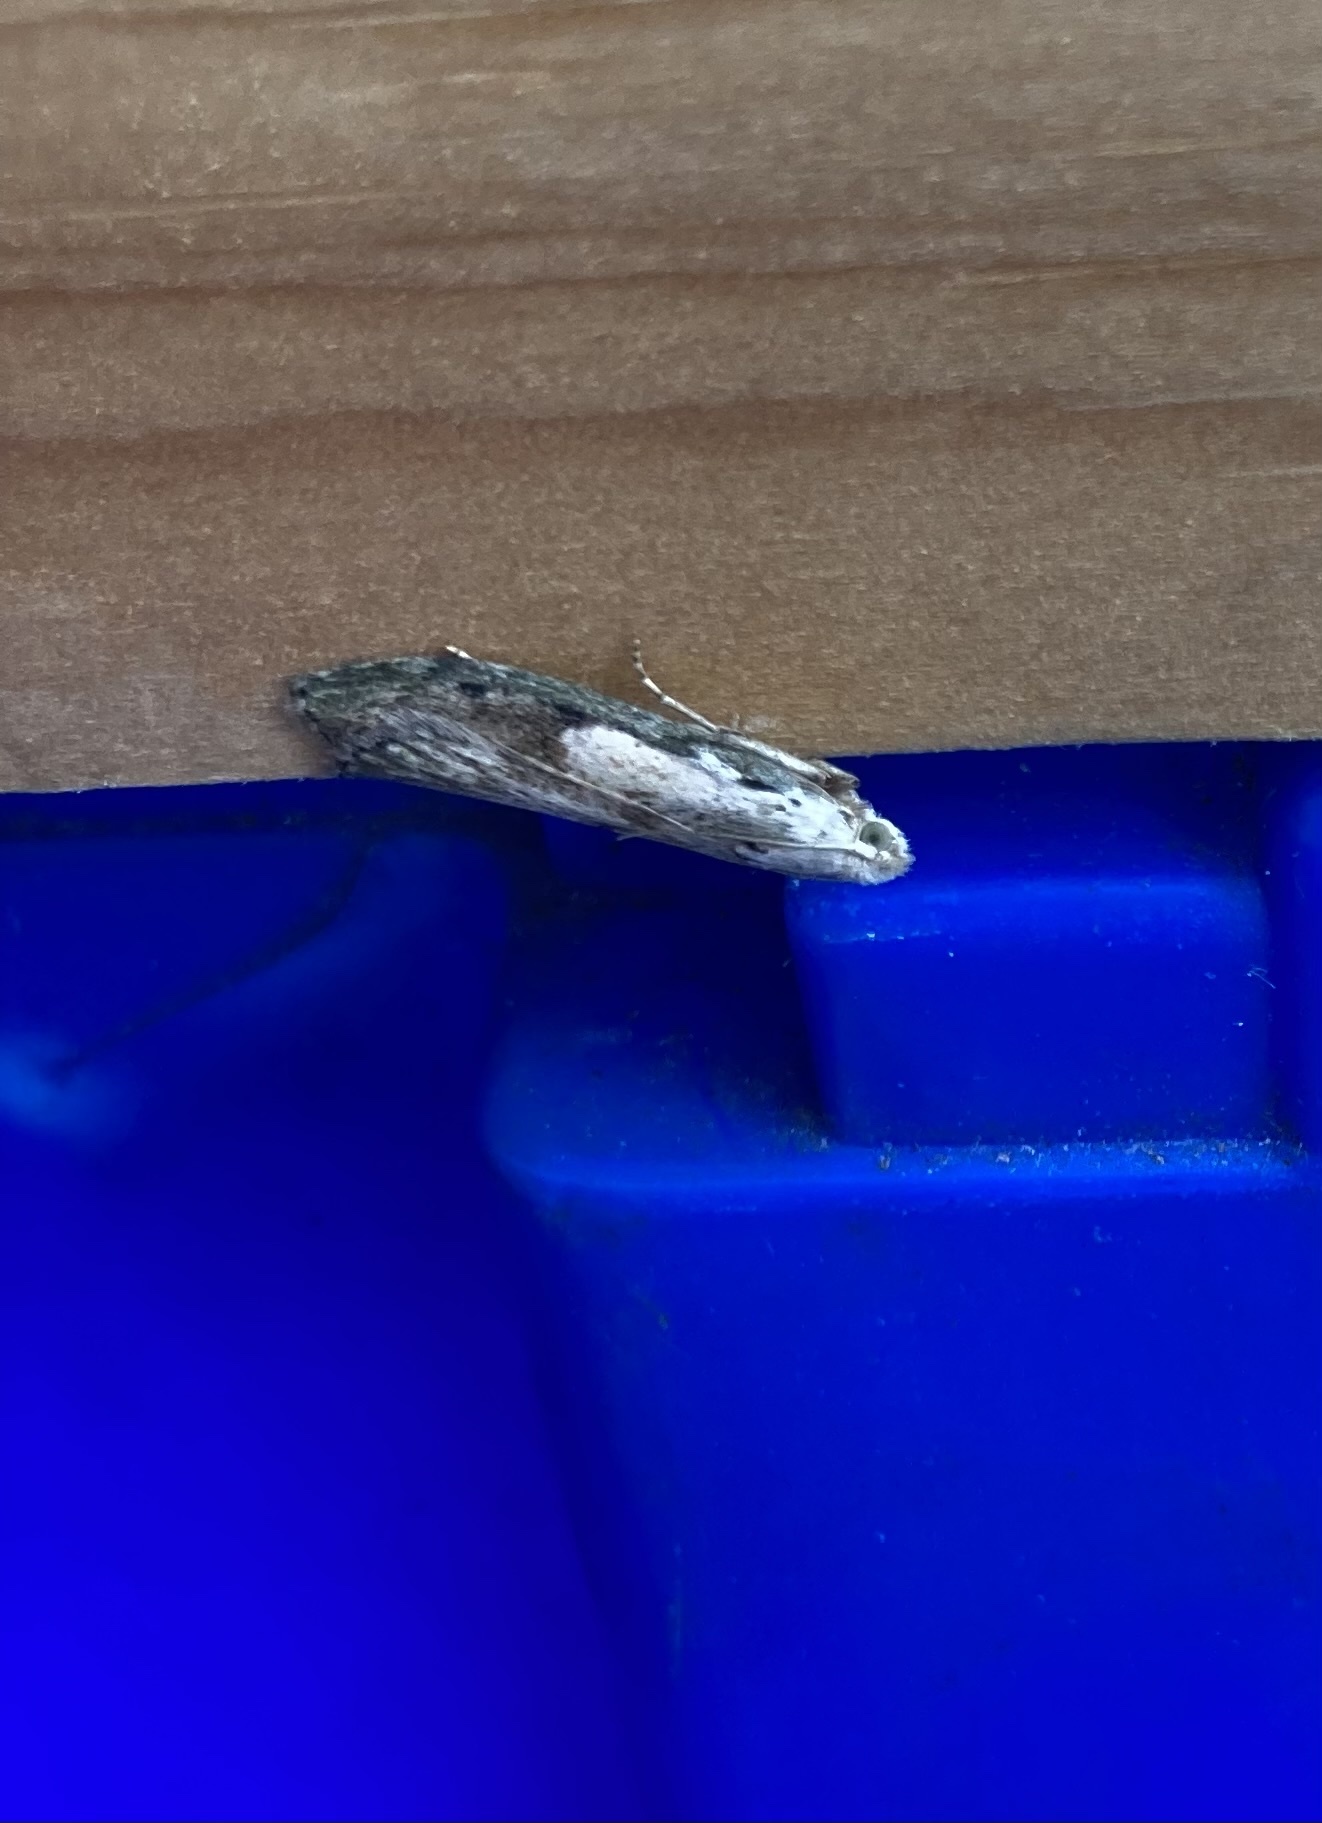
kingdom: Animalia
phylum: Arthropoda
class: Insecta
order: Lepidoptera
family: Pyralidae
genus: Aphomia
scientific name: Aphomia sociella
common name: Bee moth
